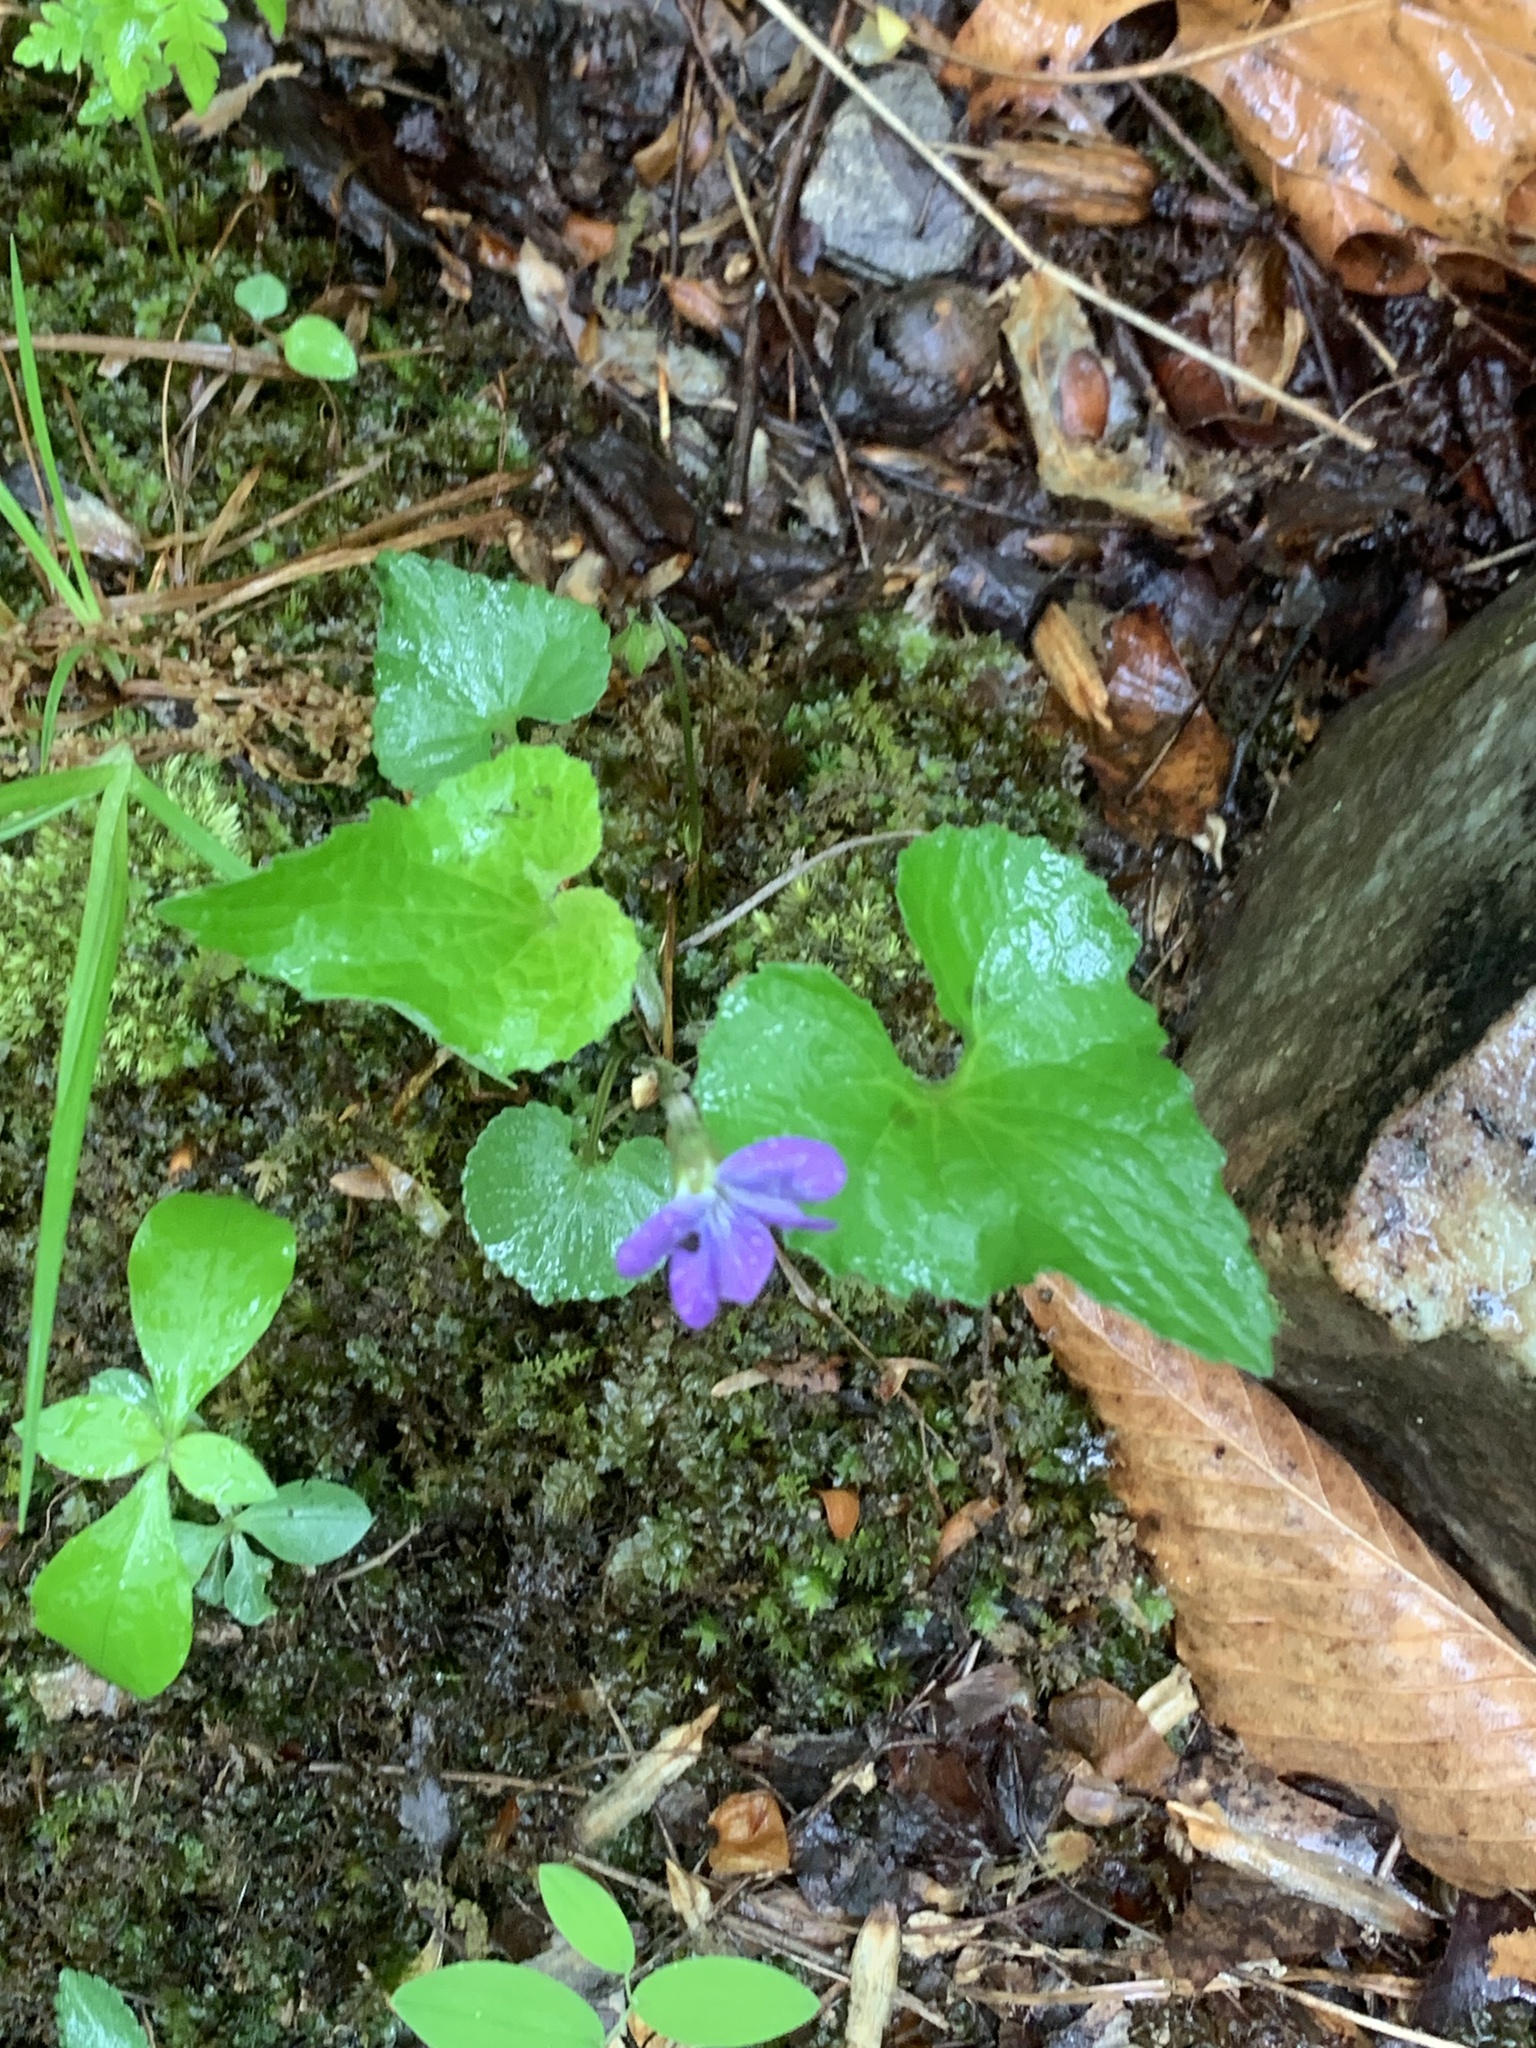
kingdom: Plantae
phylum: Tracheophyta
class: Magnoliopsida
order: Malpighiales
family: Violaceae
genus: Viola
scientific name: Viola sororia
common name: Dooryard violet
